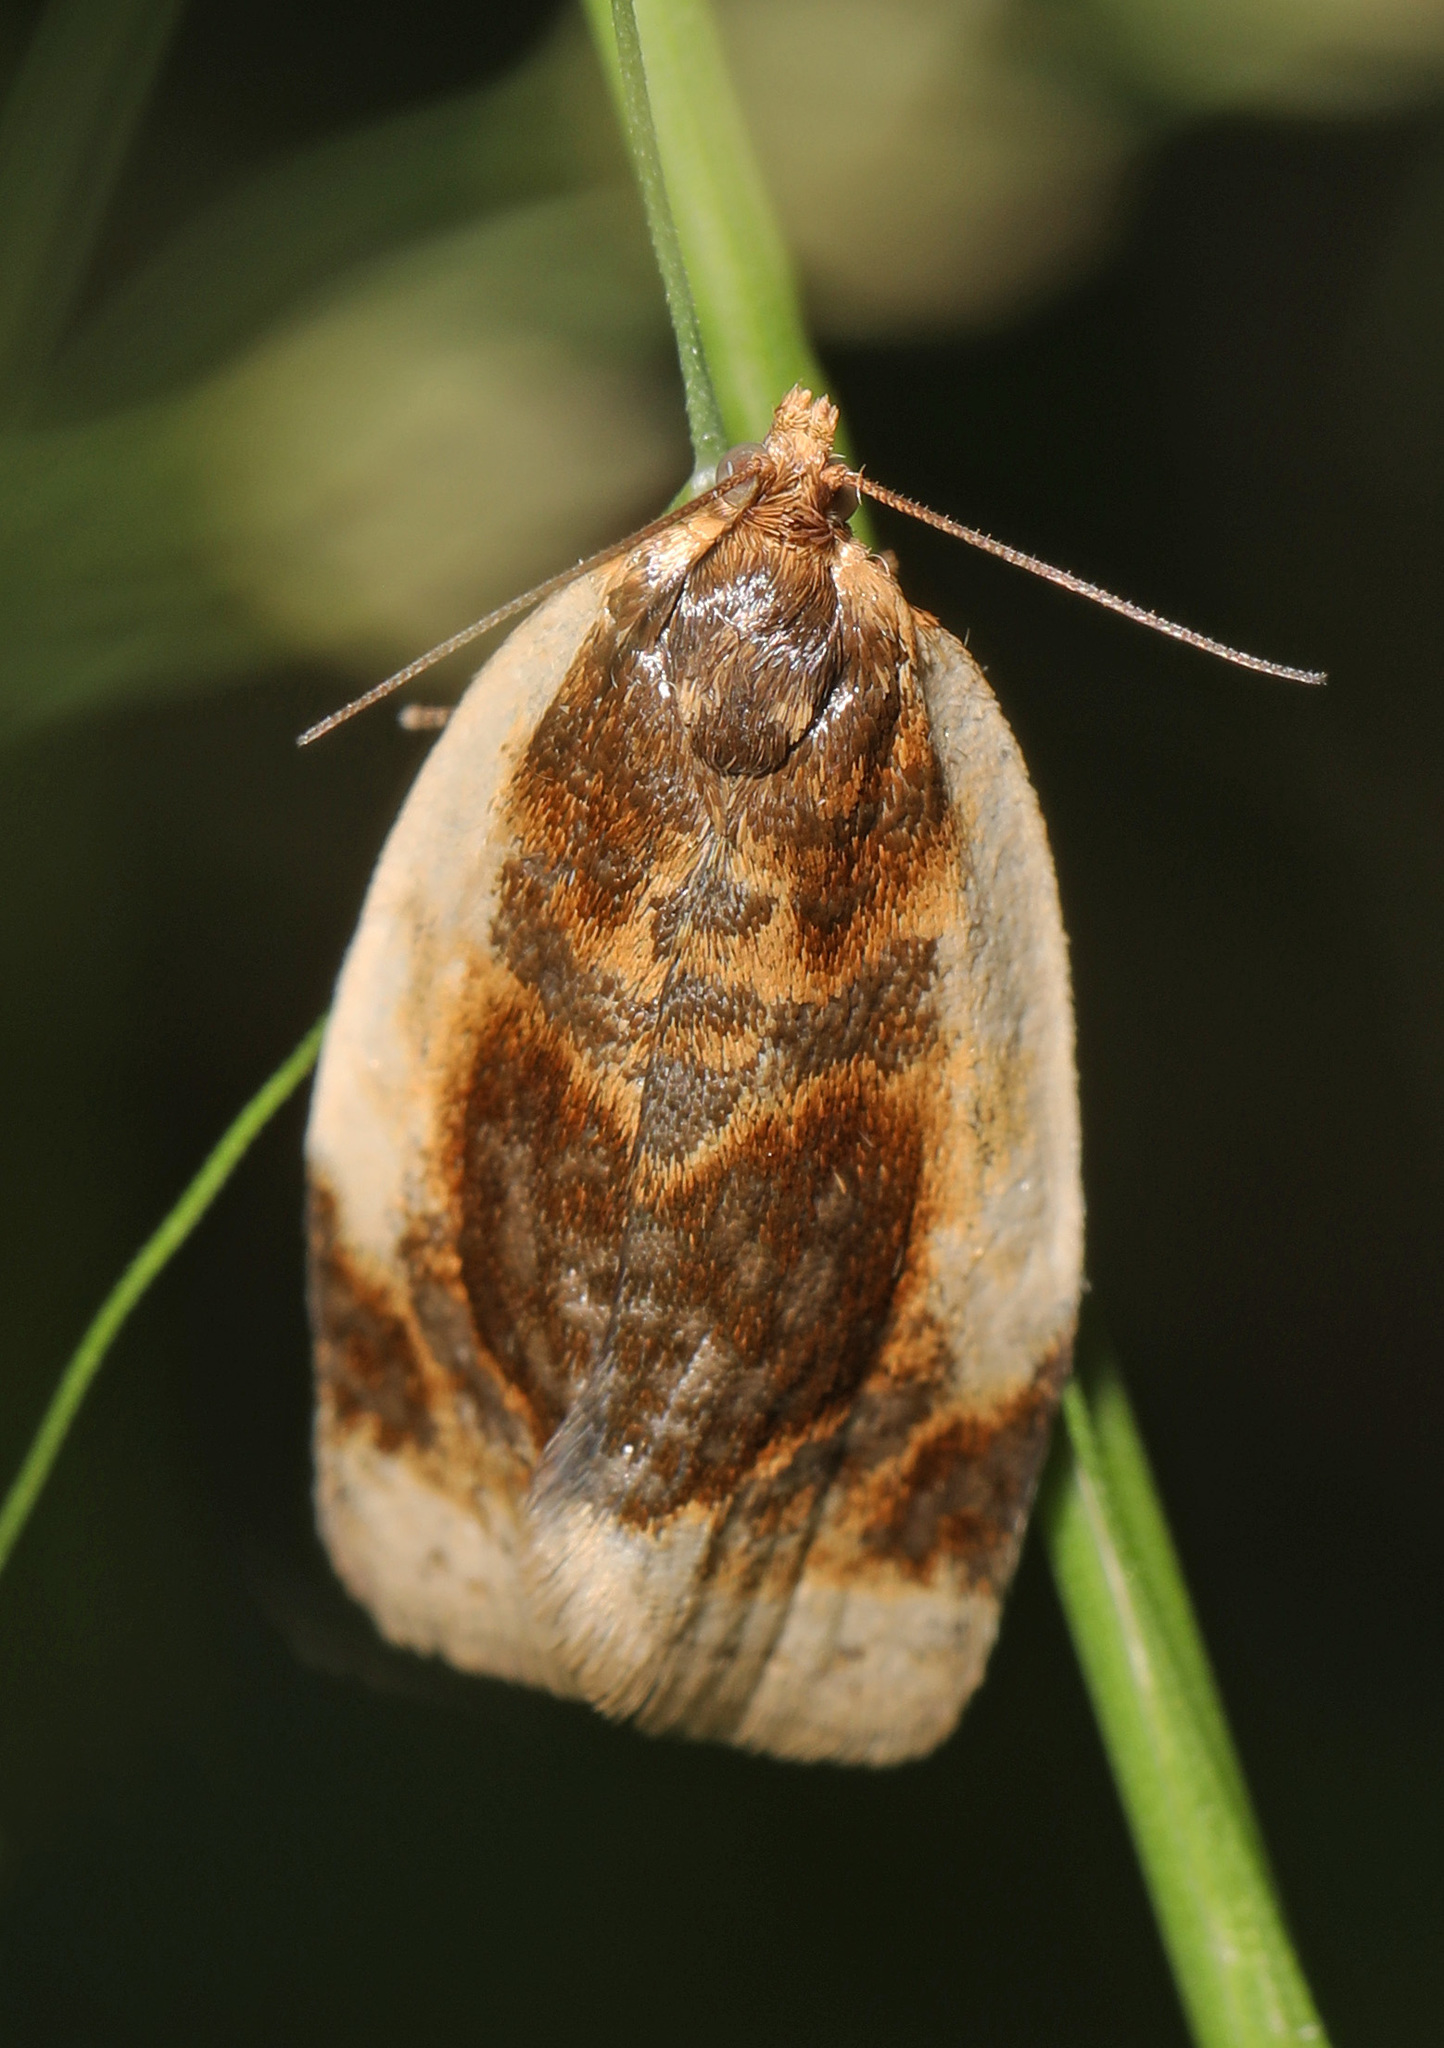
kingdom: Animalia
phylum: Arthropoda
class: Insecta
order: Lepidoptera
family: Tortricidae
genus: Clepsis
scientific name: Clepsis melaleucanus
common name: American apple tortrix
